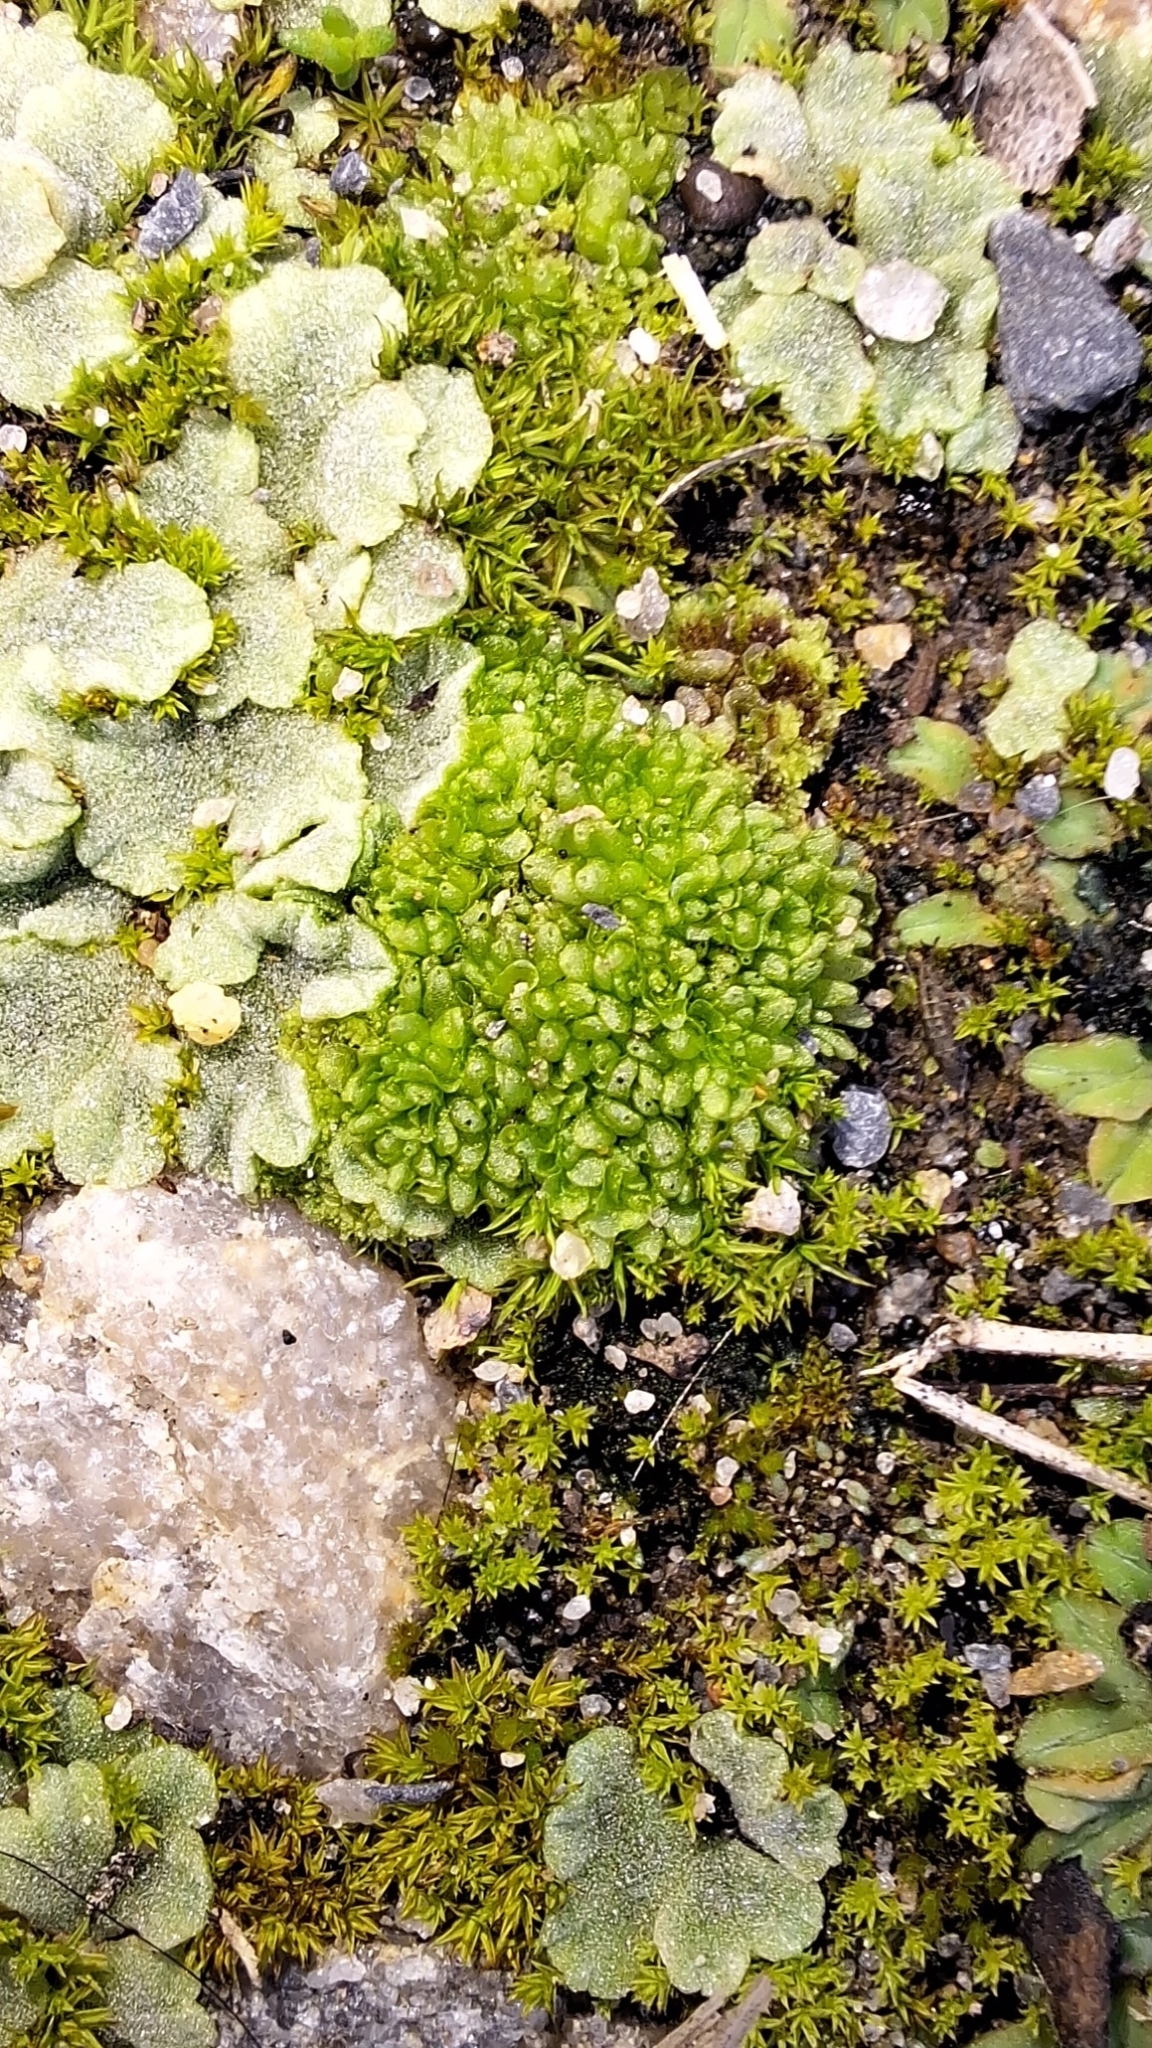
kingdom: Plantae
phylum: Marchantiophyta
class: Marchantiopsida
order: Sphaerocarpales
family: Sphaerocarpaceae
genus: Sphaerocarpos
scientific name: Sphaerocarpos texanus
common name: Texas balloonwort
